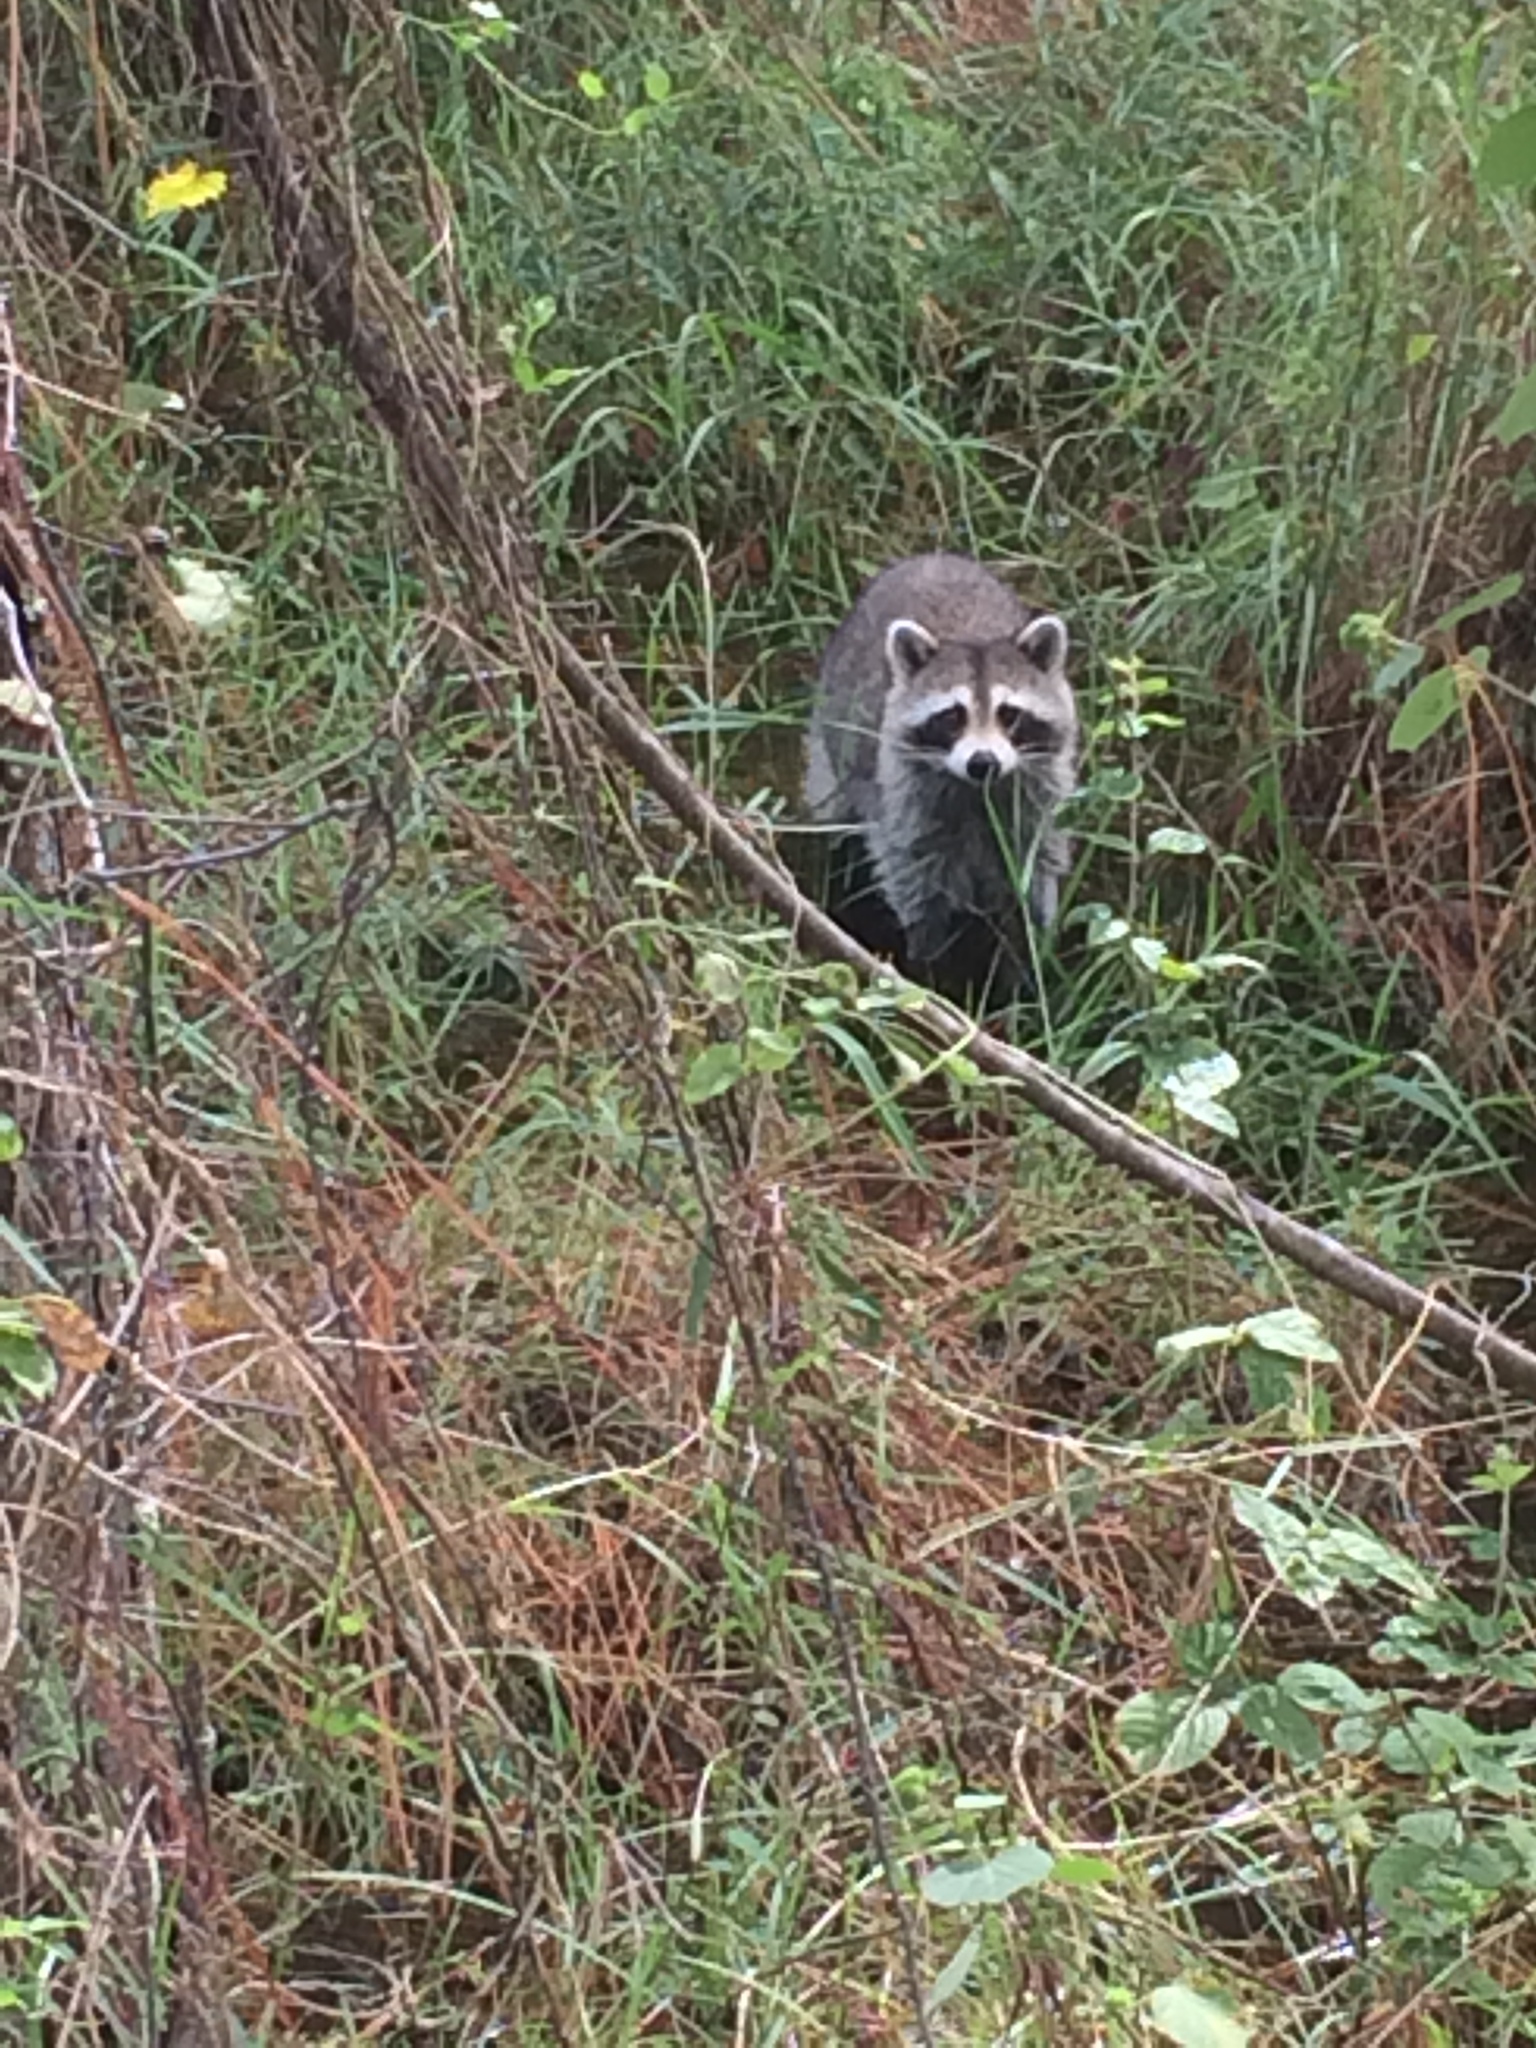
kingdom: Animalia
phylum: Chordata
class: Mammalia
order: Carnivora
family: Procyonidae
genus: Procyon
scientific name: Procyon lotor
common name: Raccoon
